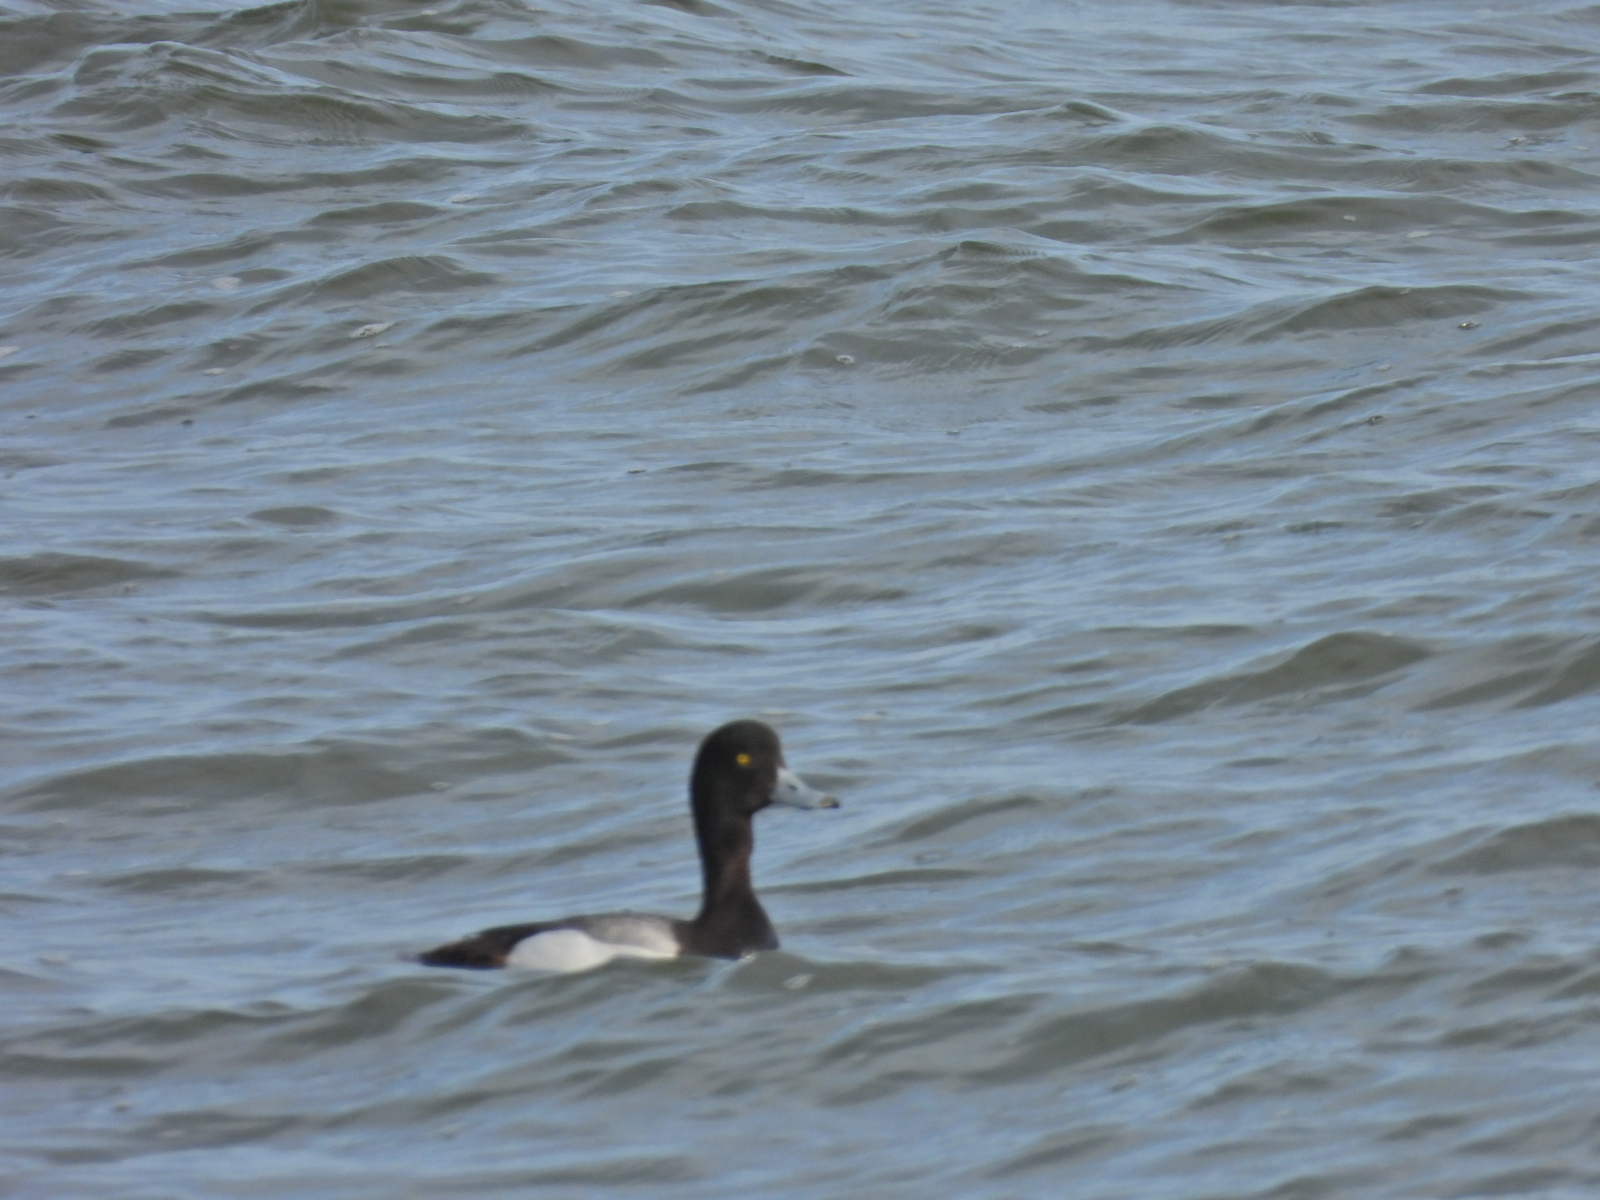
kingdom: Animalia
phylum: Chordata
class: Aves
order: Anseriformes
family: Anatidae
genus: Aythya
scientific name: Aythya affinis
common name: Lesser scaup
